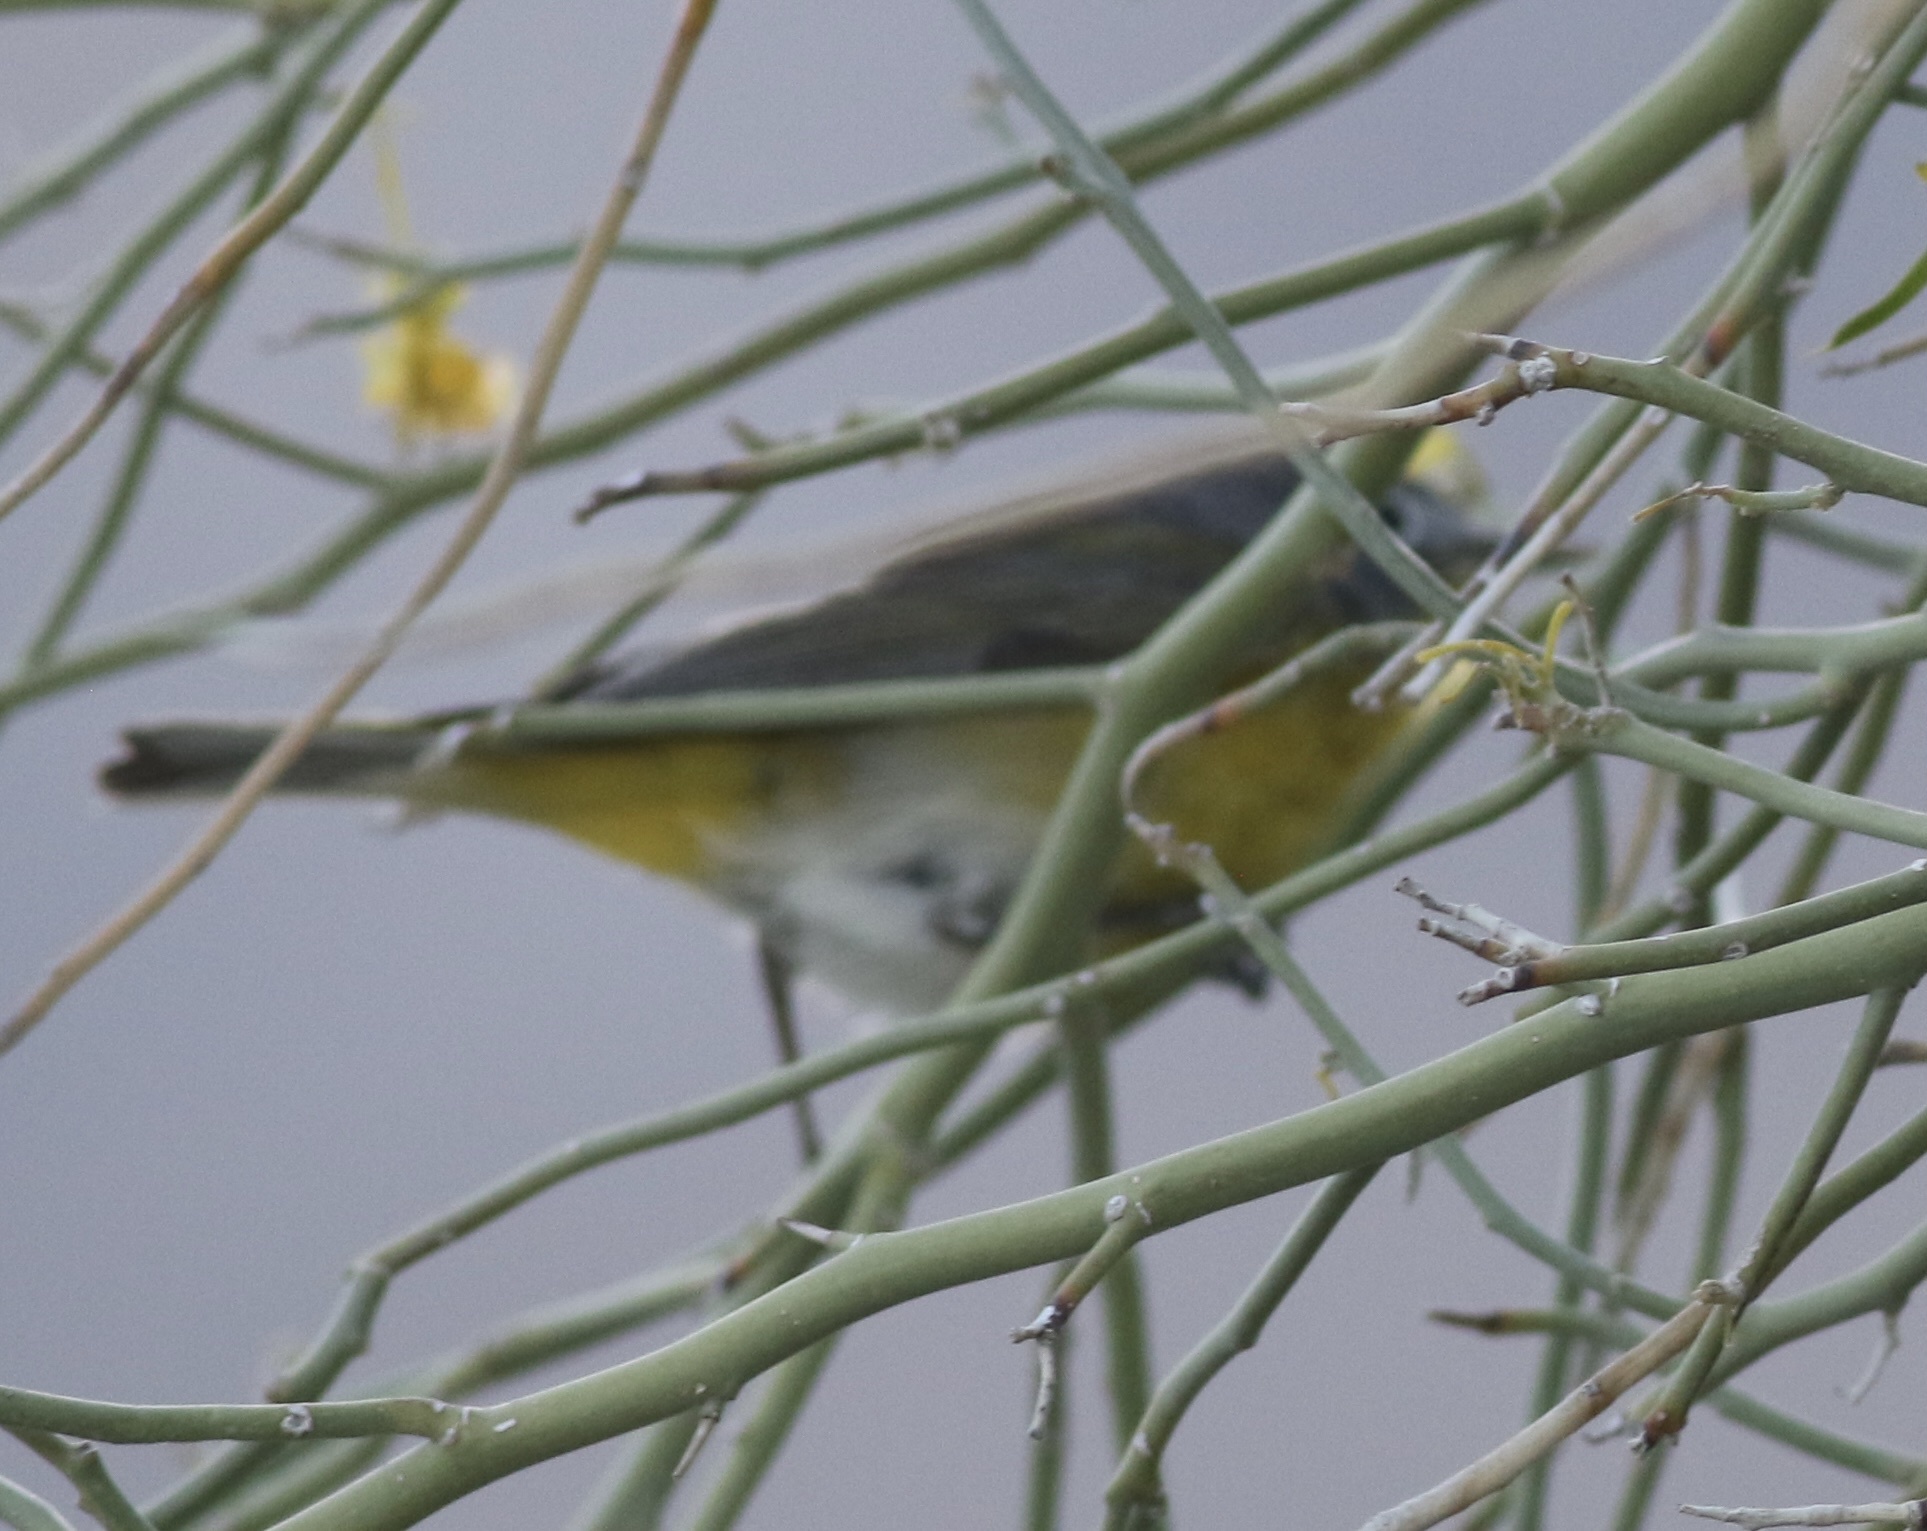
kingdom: Animalia
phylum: Chordata
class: Aves
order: Passeriformes
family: Parulidae
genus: Leiothlypis
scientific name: Leiothlypis ruficapilla
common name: Nashville warbler
